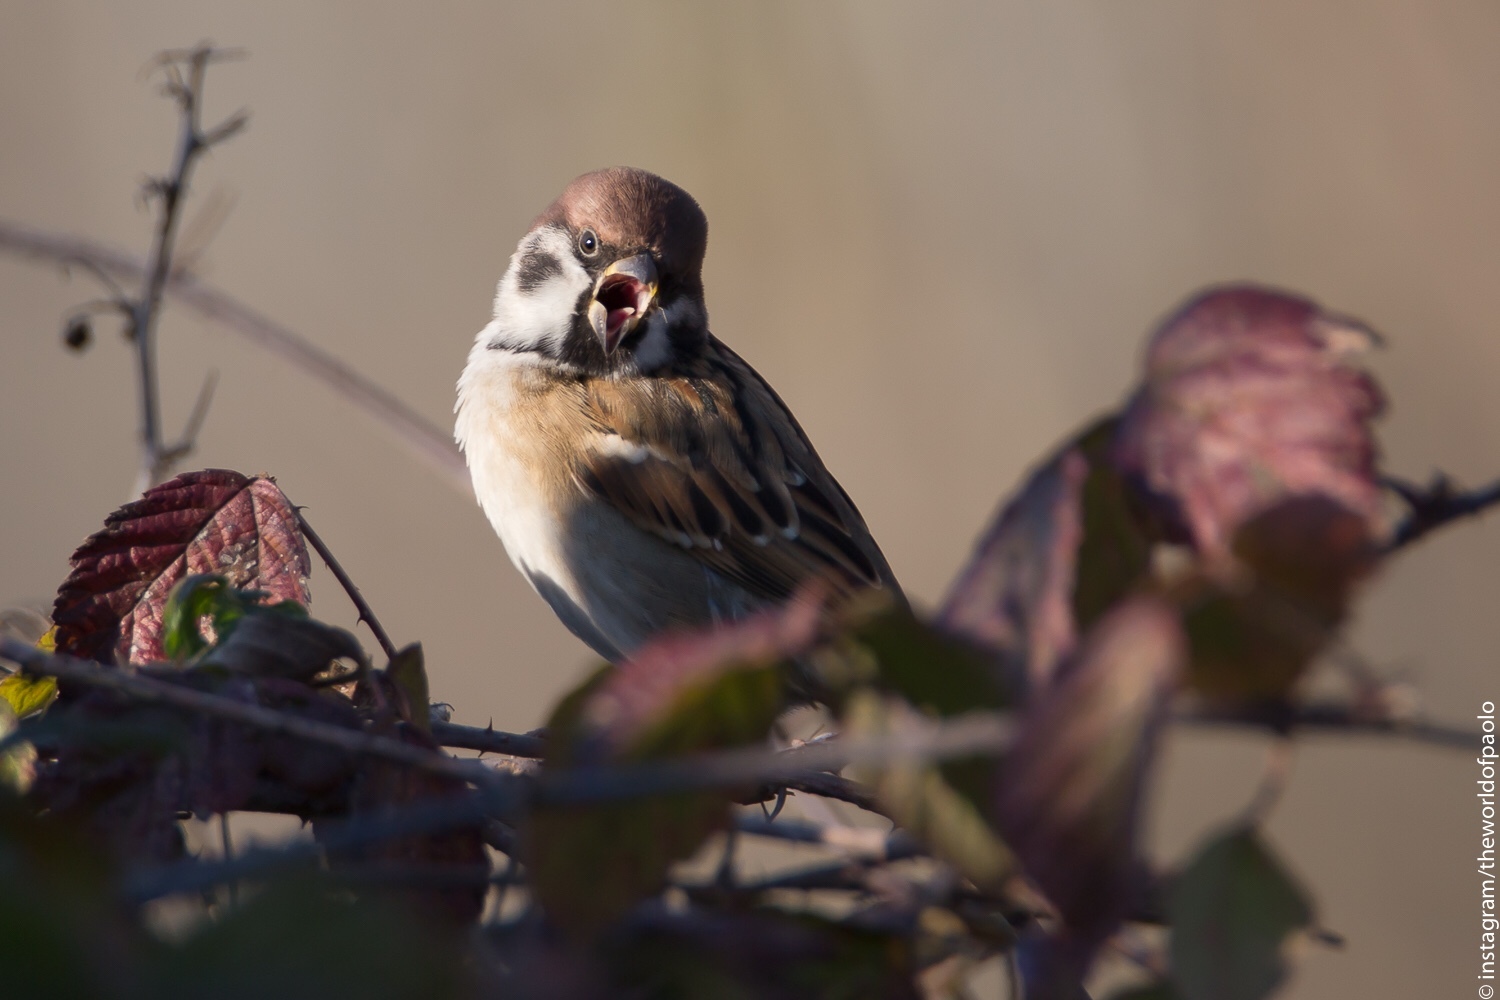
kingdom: Animalia
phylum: Chordata
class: Aves
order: Passeriformes
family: Passeridae
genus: Passer
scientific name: Passer montanus
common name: Eurasian tree sparrow
